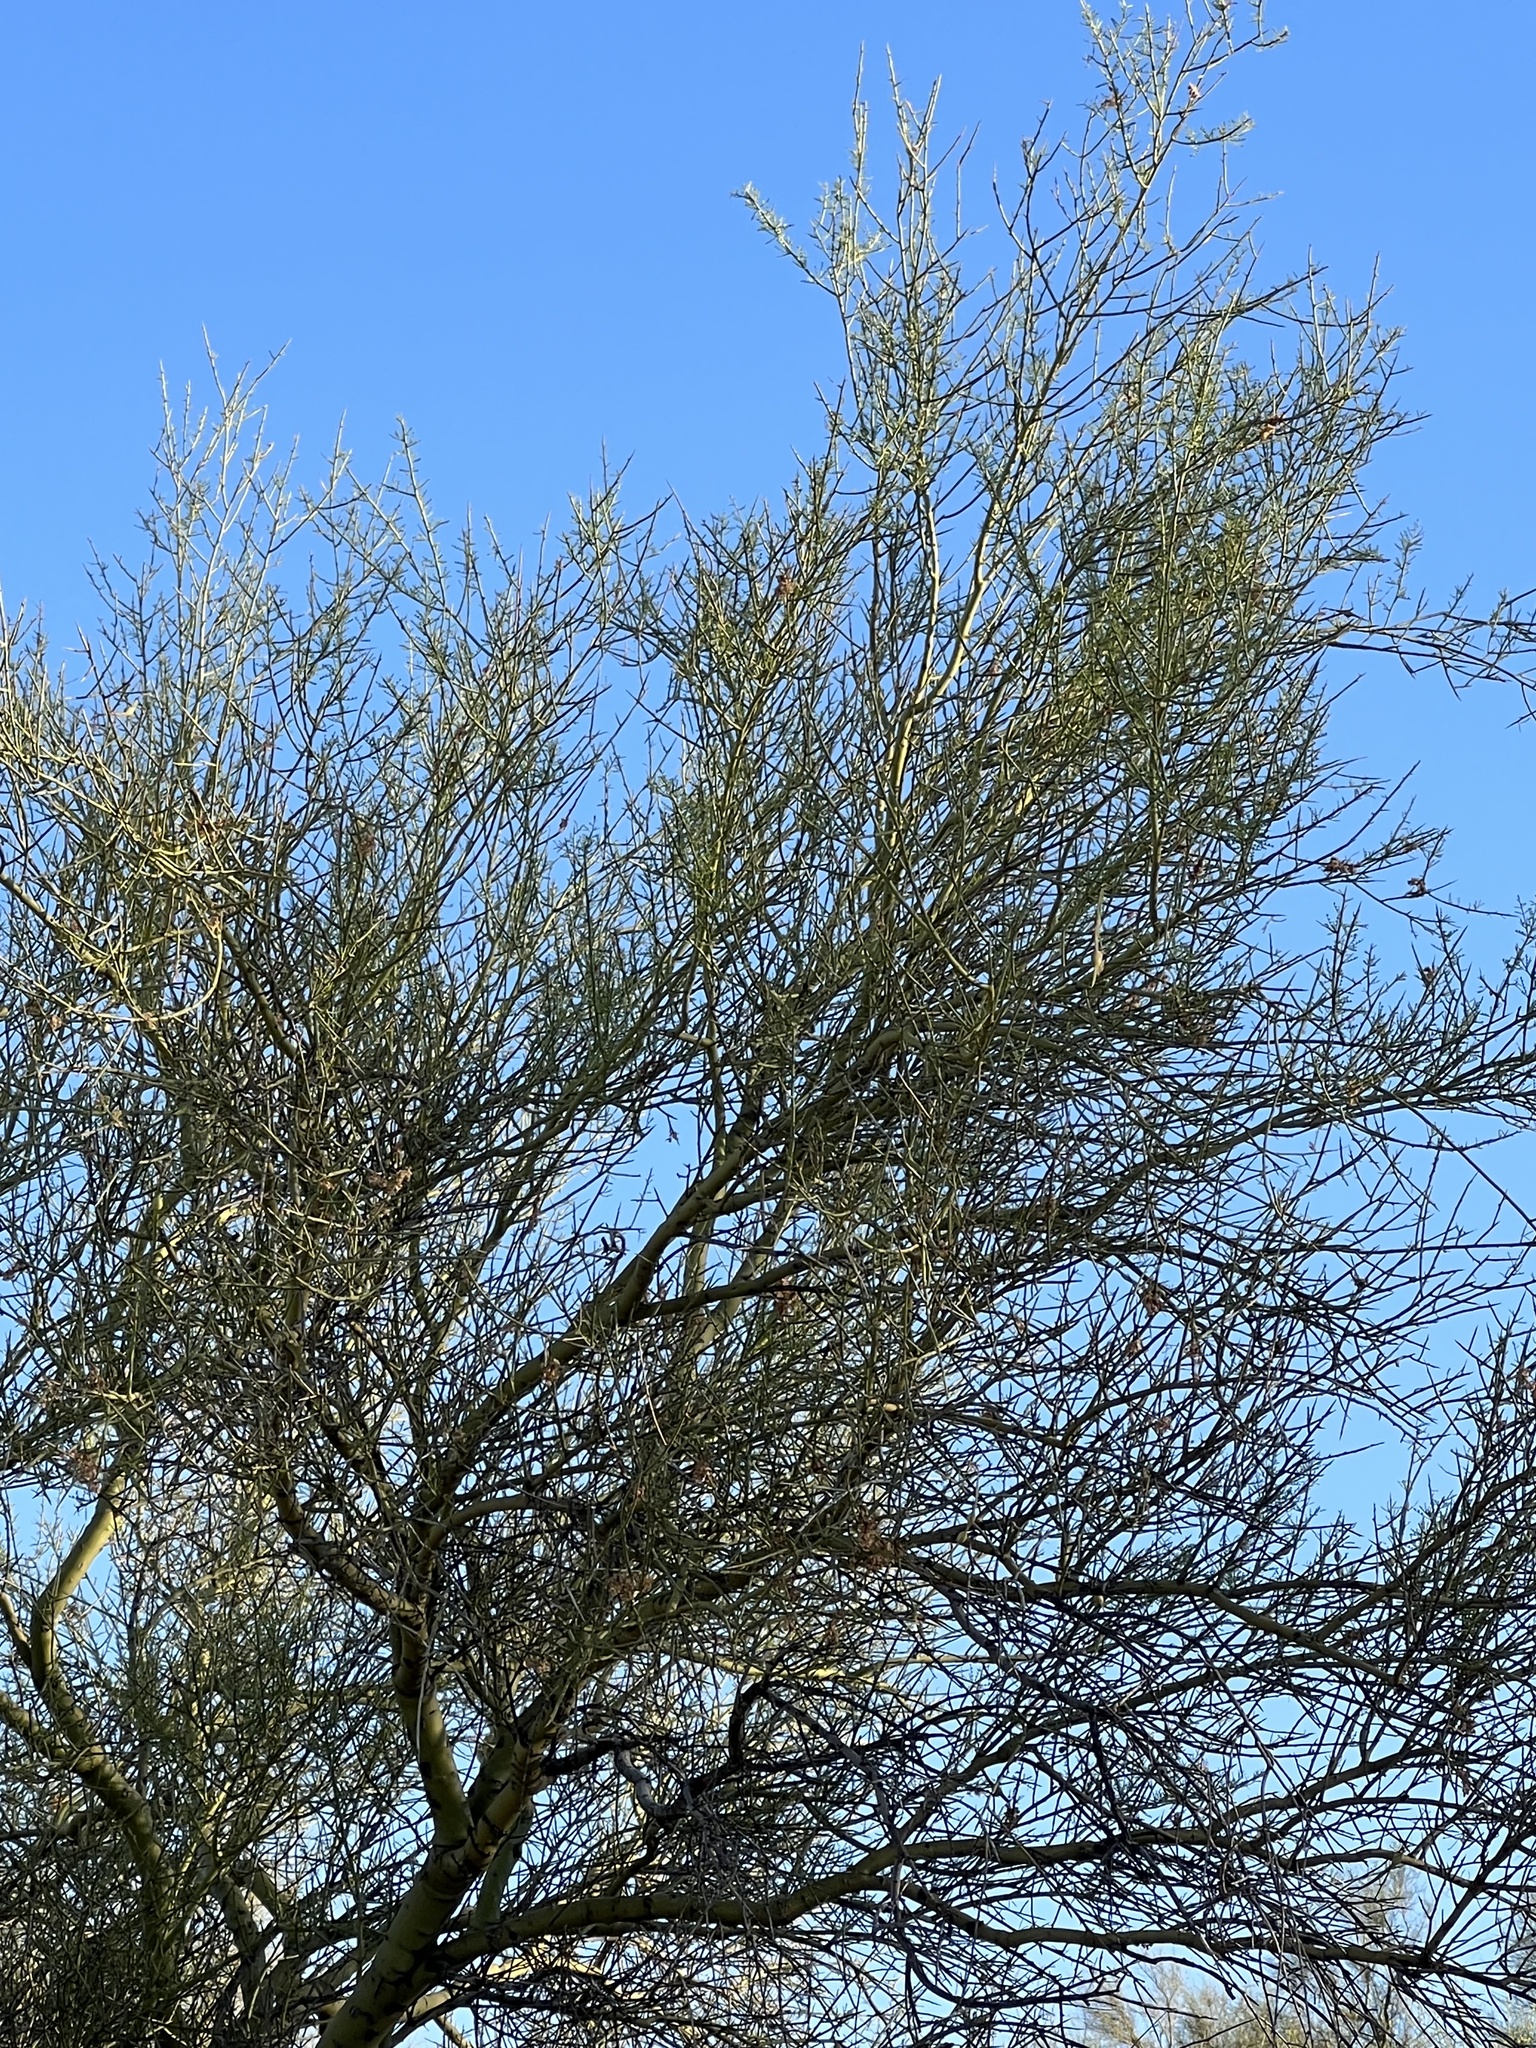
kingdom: Plantae
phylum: Tracheophyta
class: Magnoliopsida
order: Fabales
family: Fabaceae
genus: Parkinsonia
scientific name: Parkinsonia microphylla
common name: Yellow paloverde
